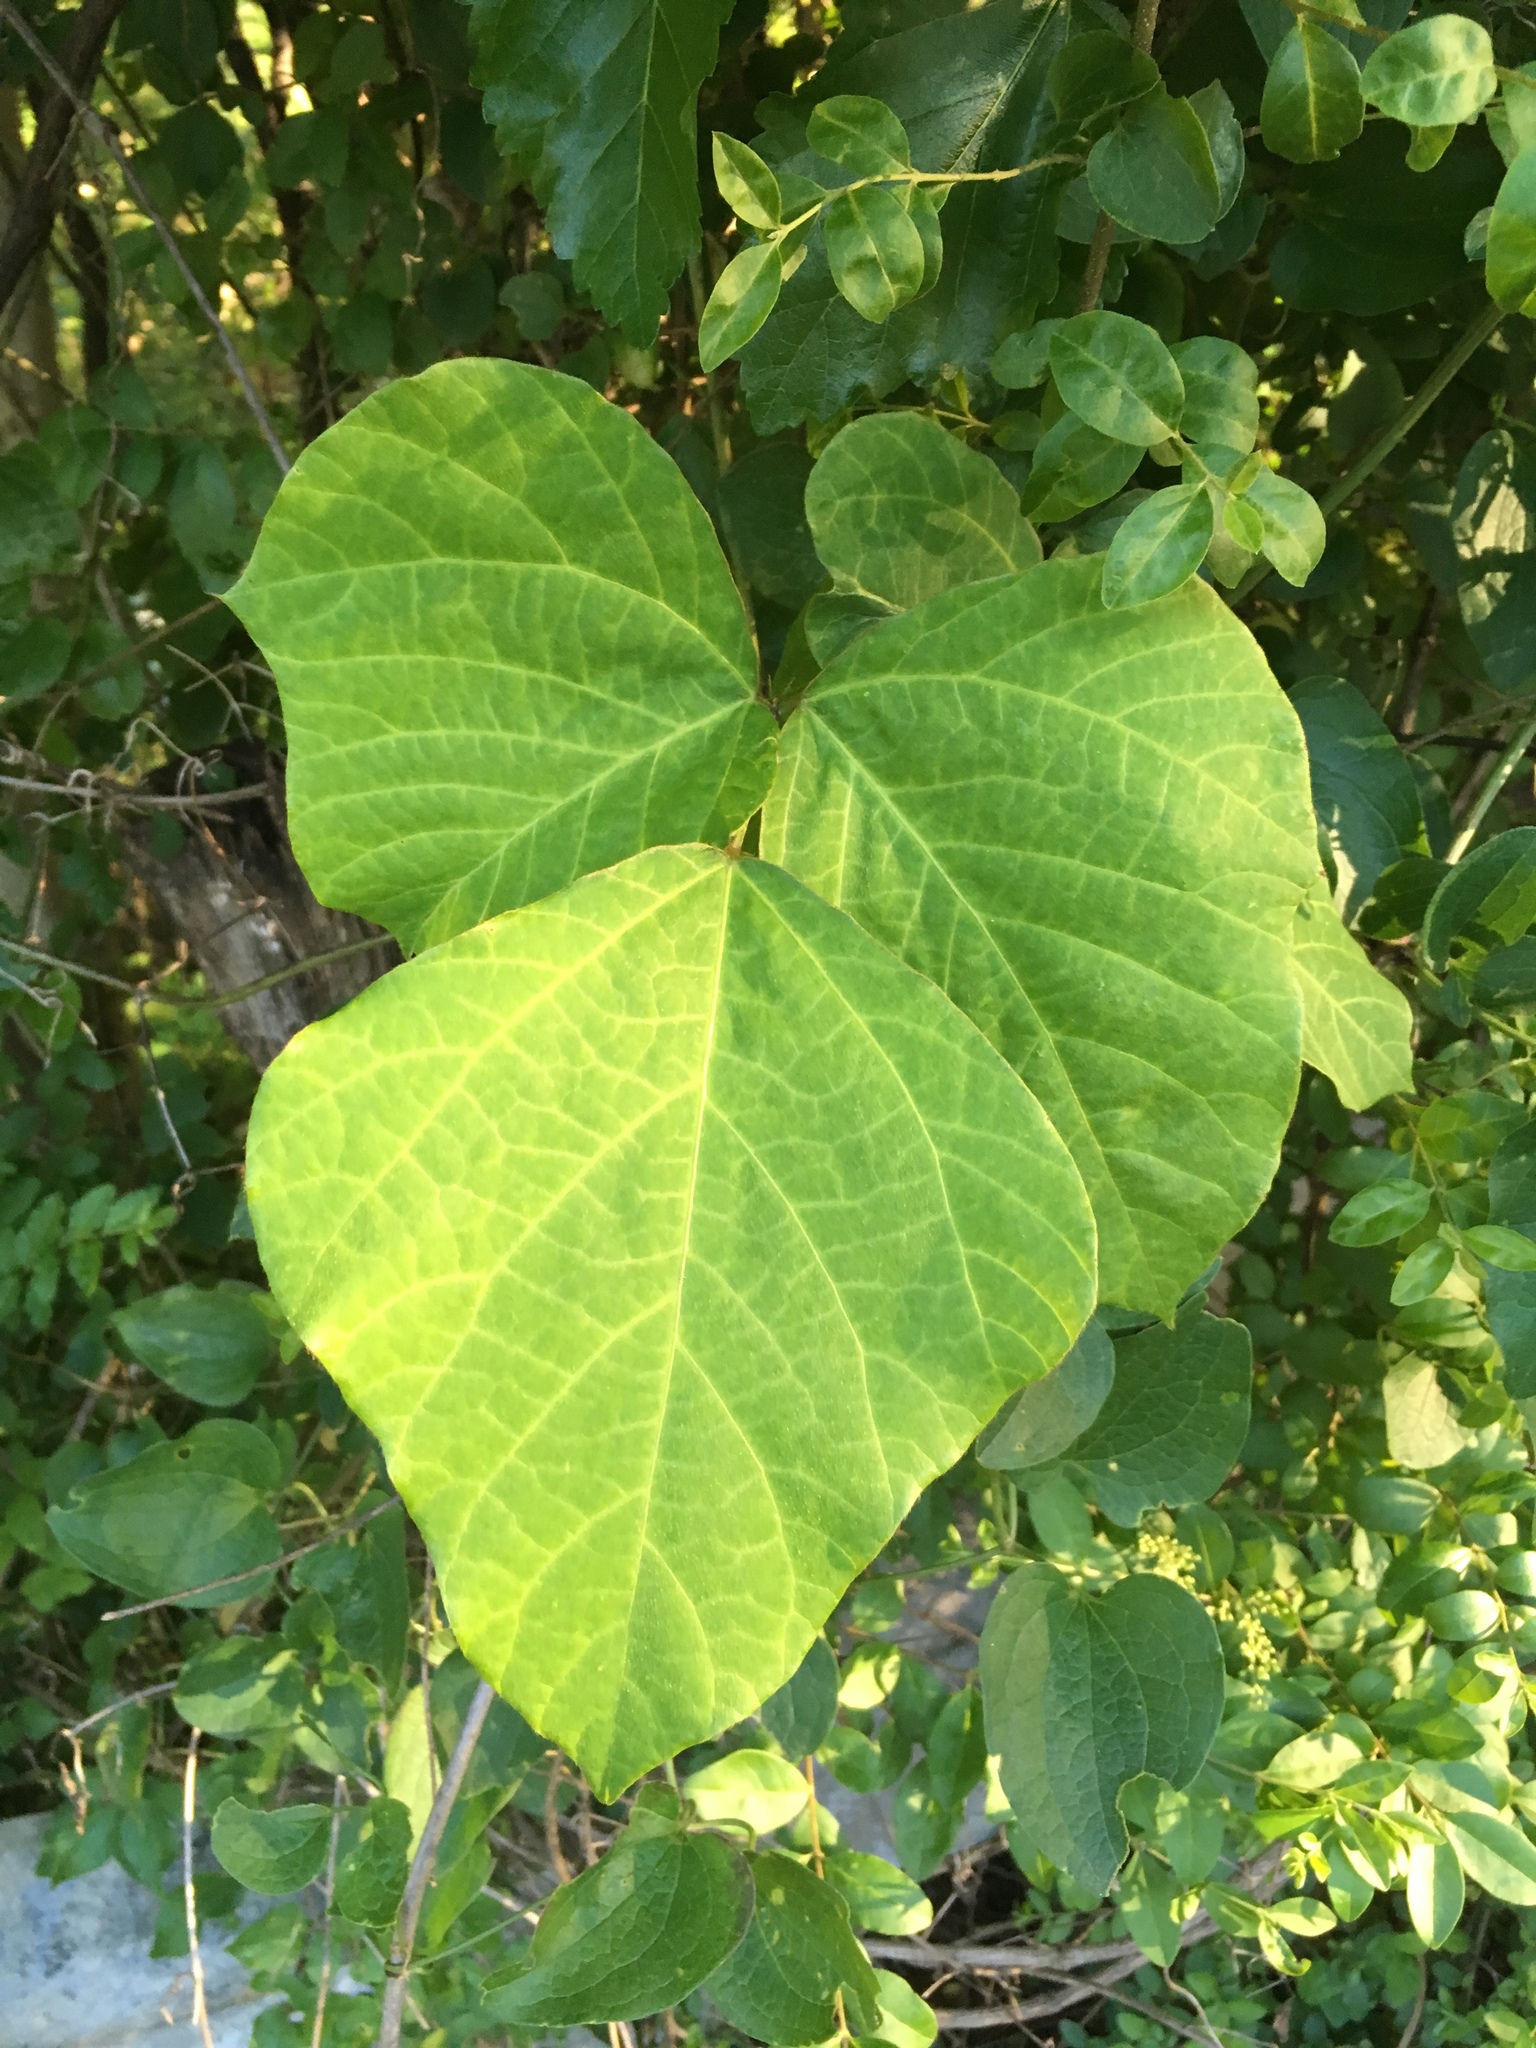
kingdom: Plantae
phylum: Tracheophyta
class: Magnoliopsida
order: Fabales
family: Fabaceae
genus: Pueraria
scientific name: Pueraria montana
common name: Kudzu
